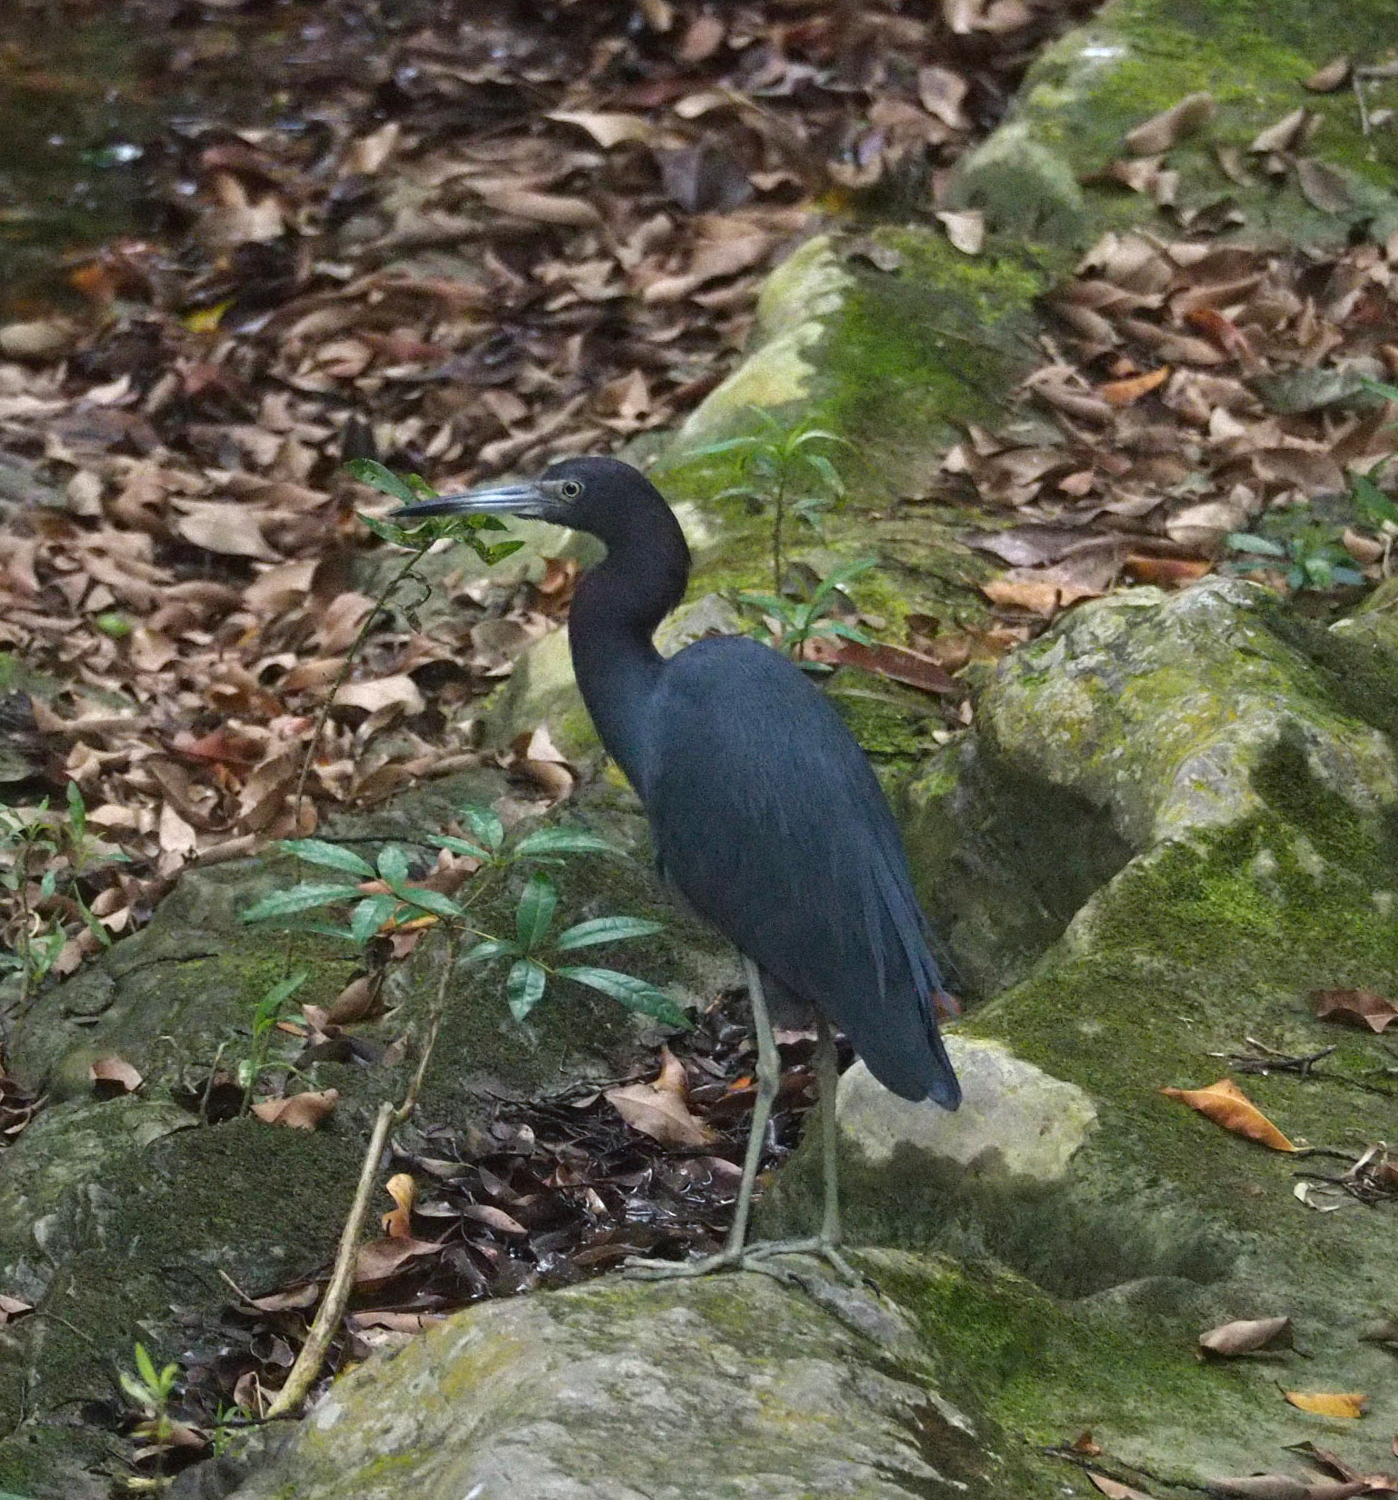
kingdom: Animalia
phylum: Chordata
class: Aves
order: Pelecaniformes
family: Ardeidae
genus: Egretta
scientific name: Egretta caerulea
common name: Little blue heron
